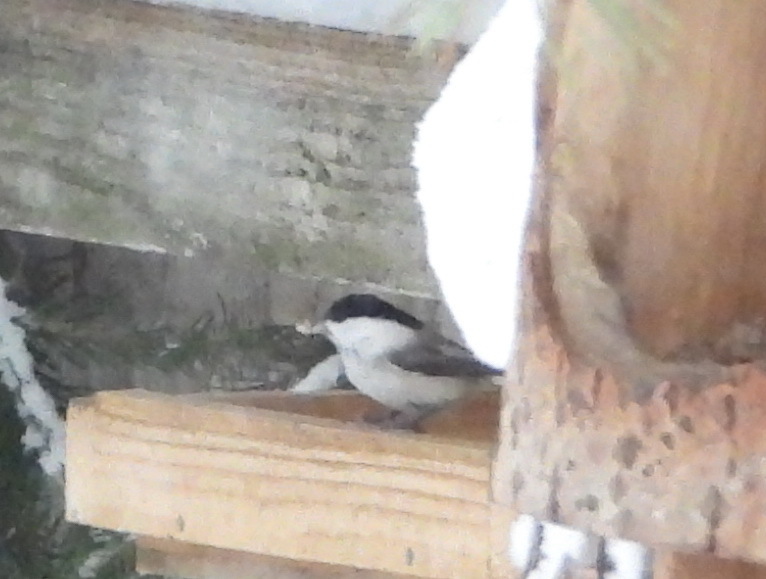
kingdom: Animalia
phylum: Chordata
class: Aves
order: Passeriformes
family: Paridae
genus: Poecile
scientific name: Poecile montanus
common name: Willow tit
